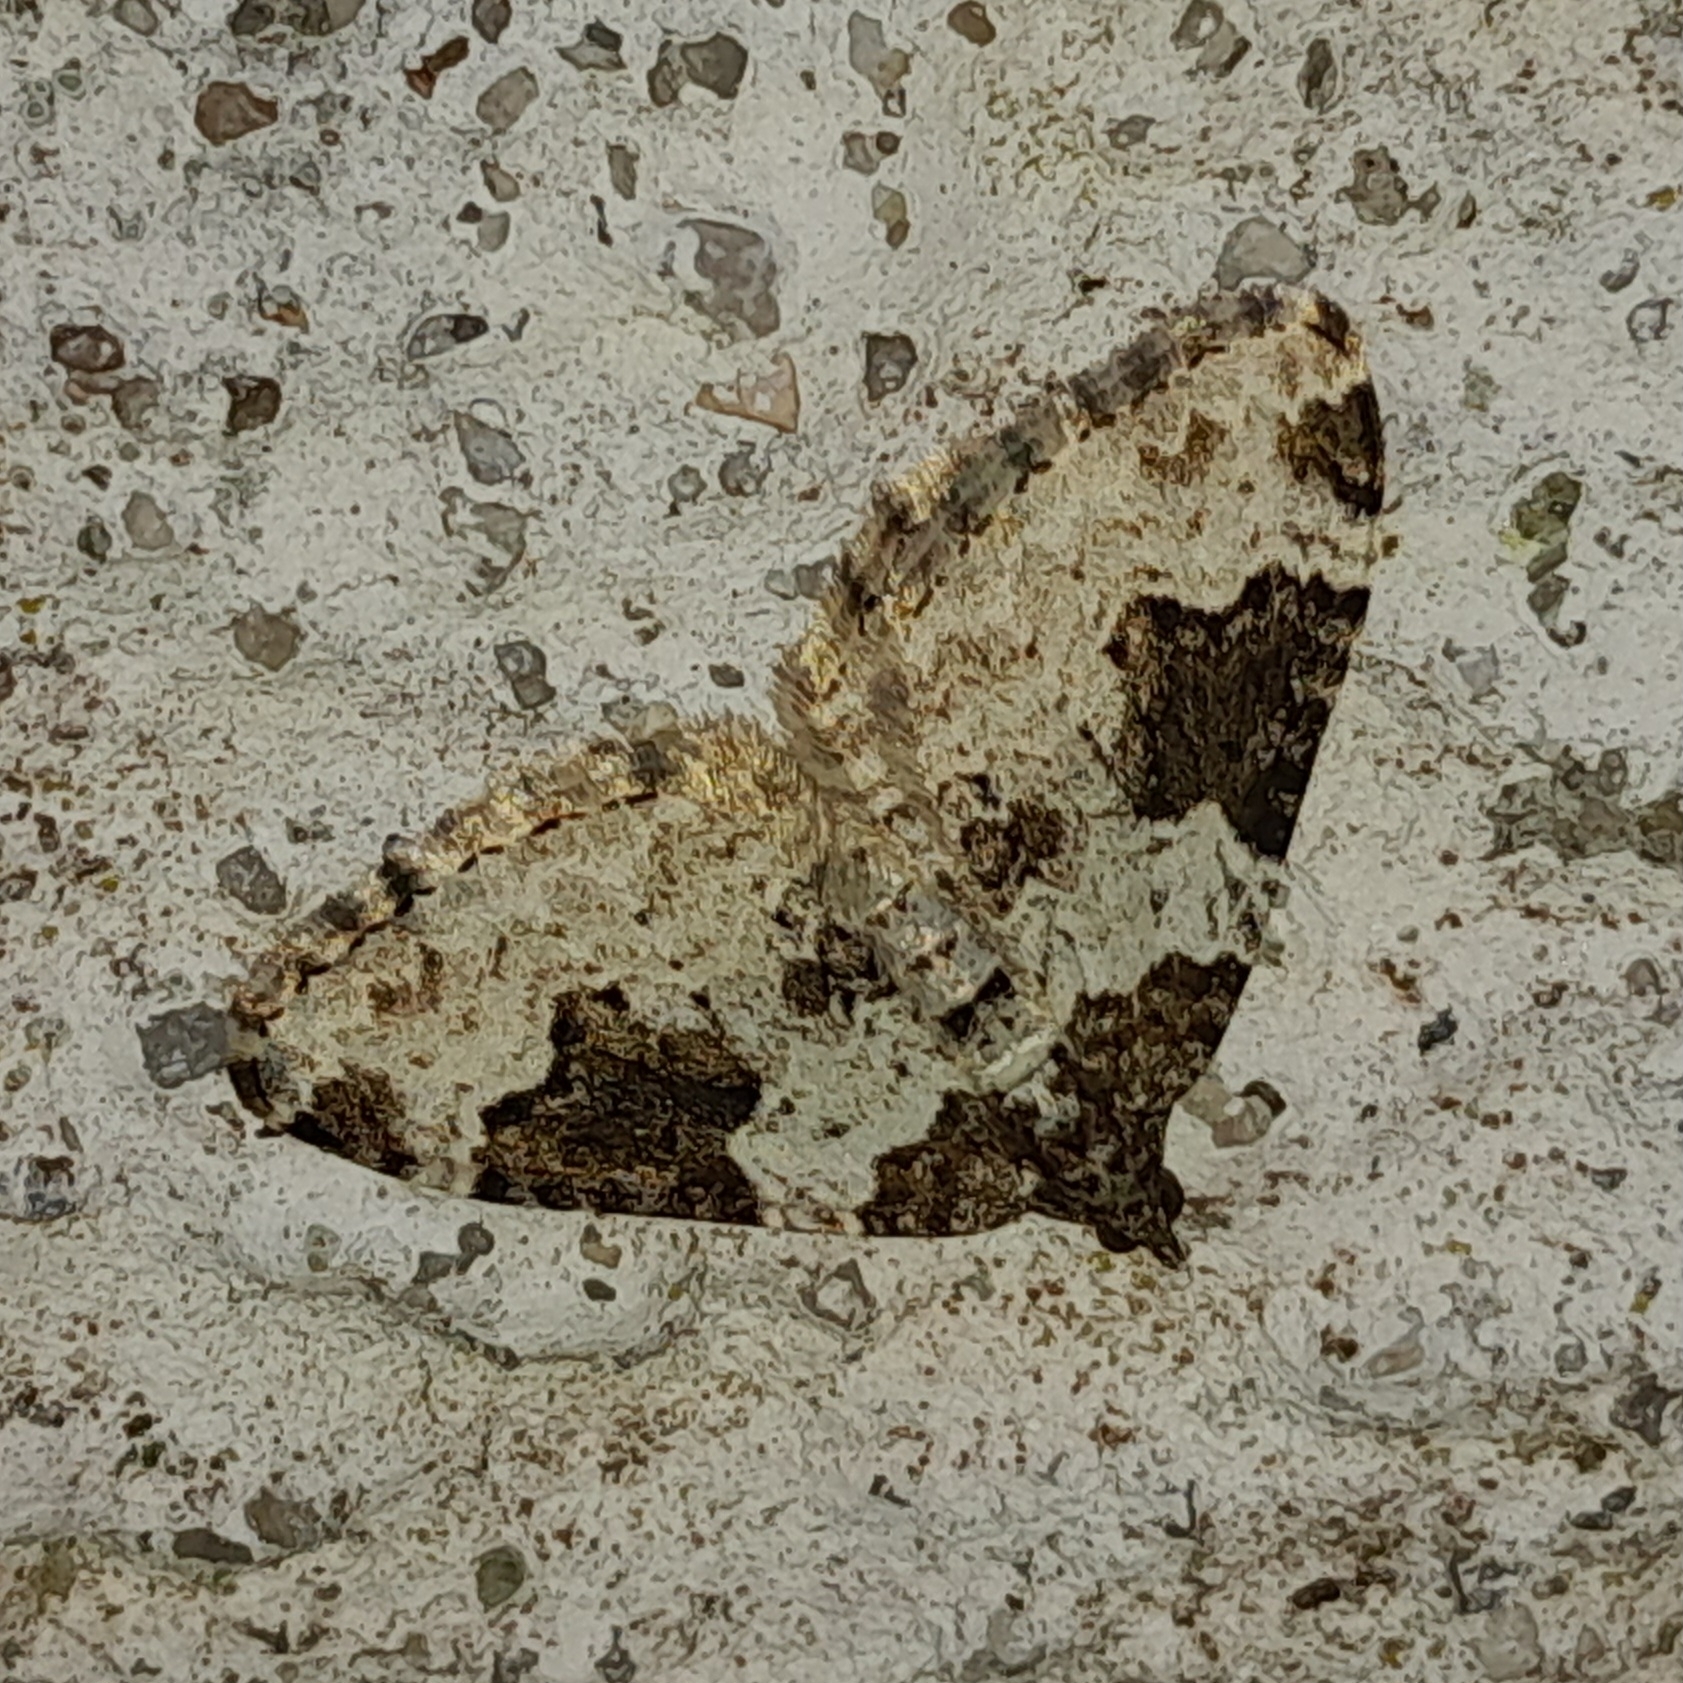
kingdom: Animalia
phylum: Arthropoda
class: Insecta
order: Lepidoptera
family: Geometridae
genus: Xanthorhoe
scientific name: Xanthorhoe fluctuata
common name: Garden carpet
